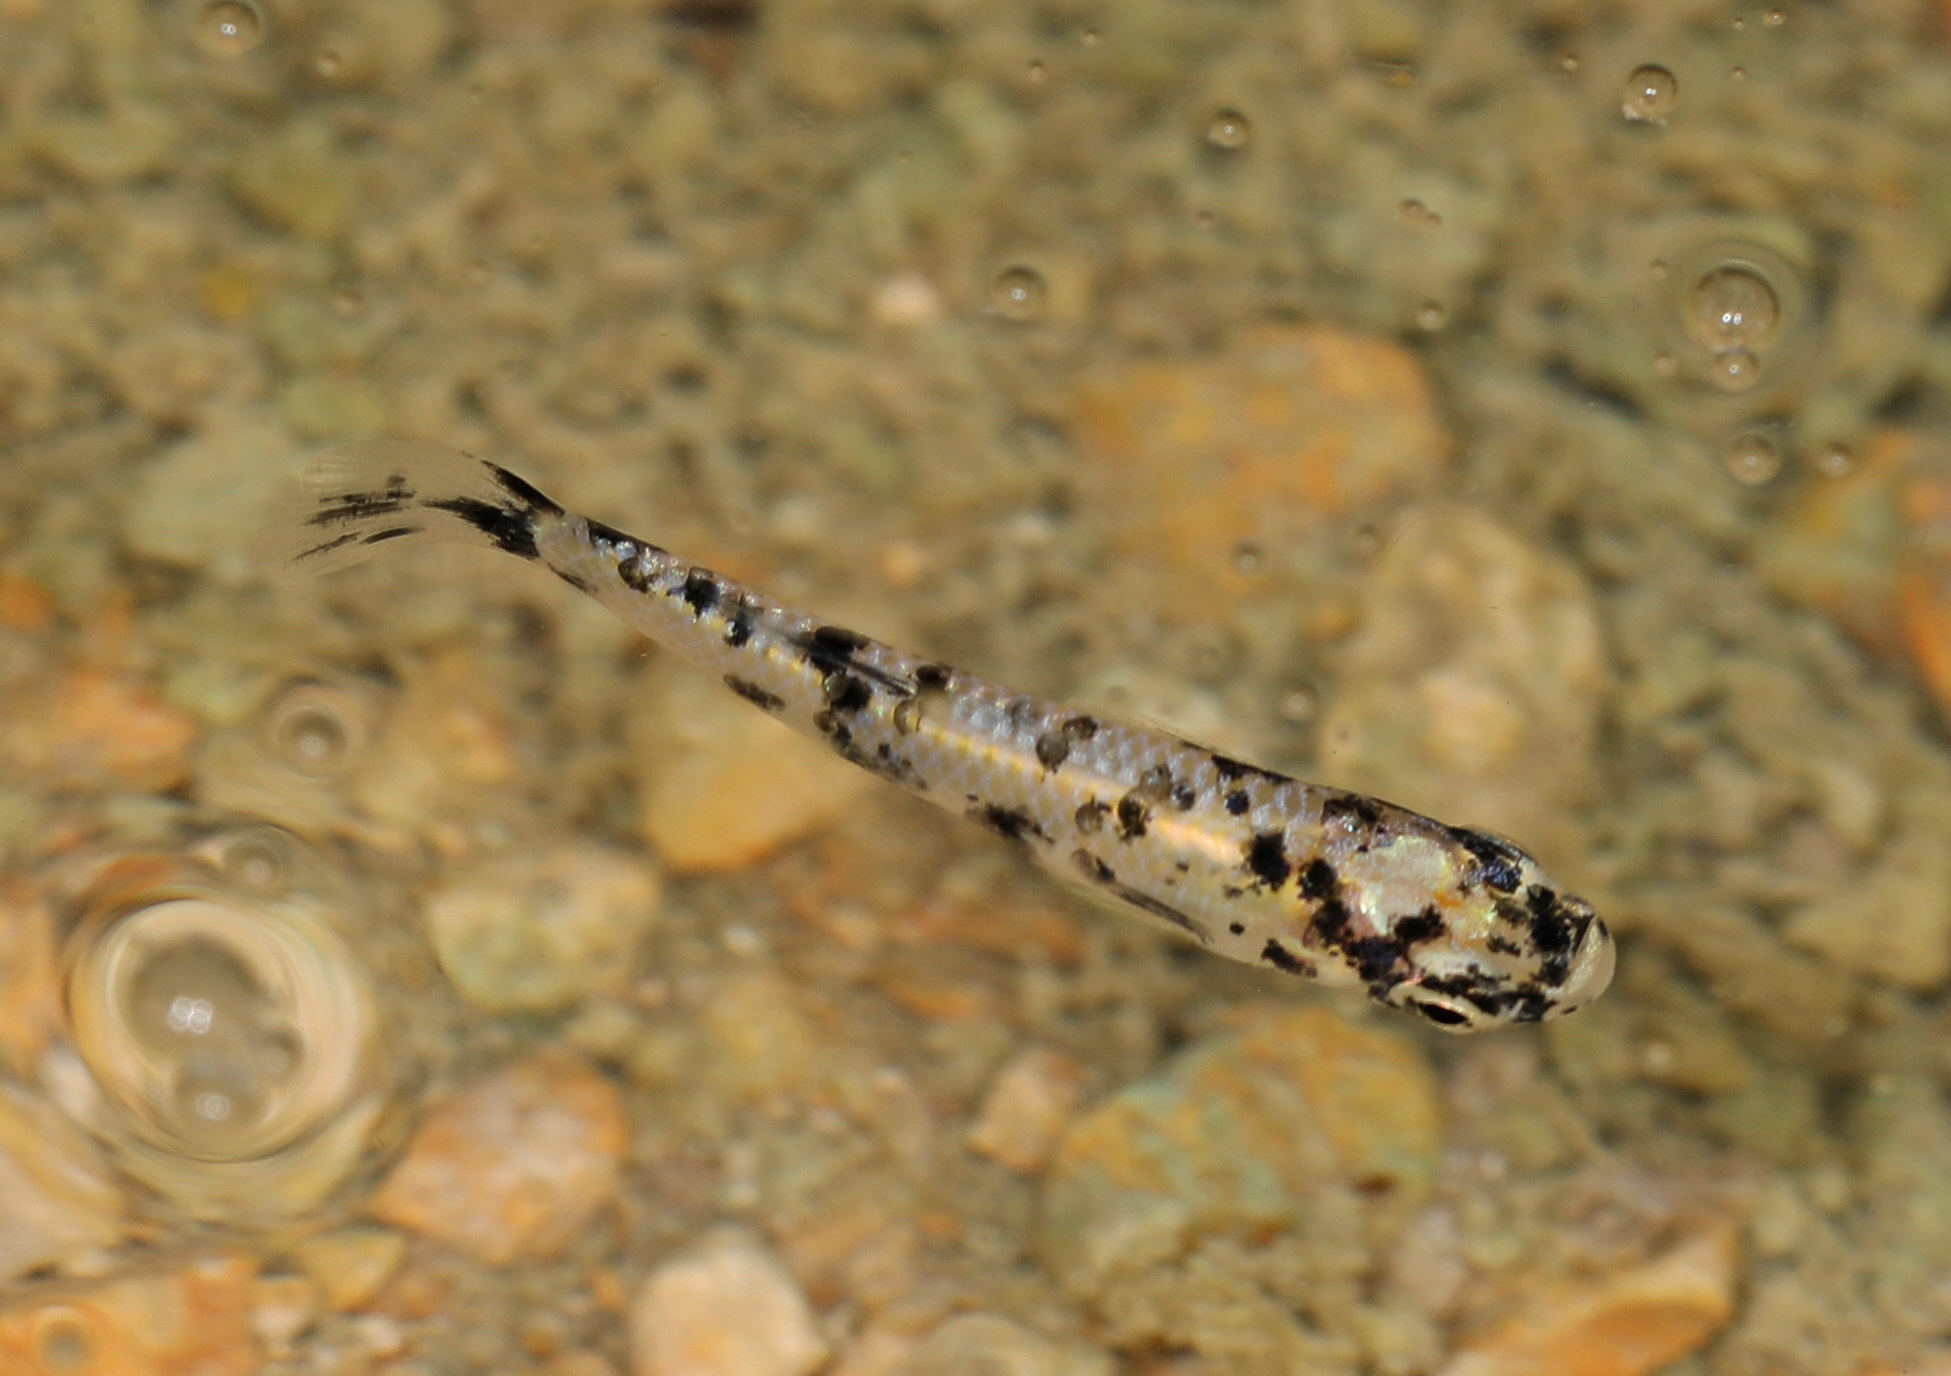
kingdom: Animalia
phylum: Chordata
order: Cyprinodontiformes
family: Poeciliidae
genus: Gambusia
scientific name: Gambusia holbrooki
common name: Eastern mosquitofish
